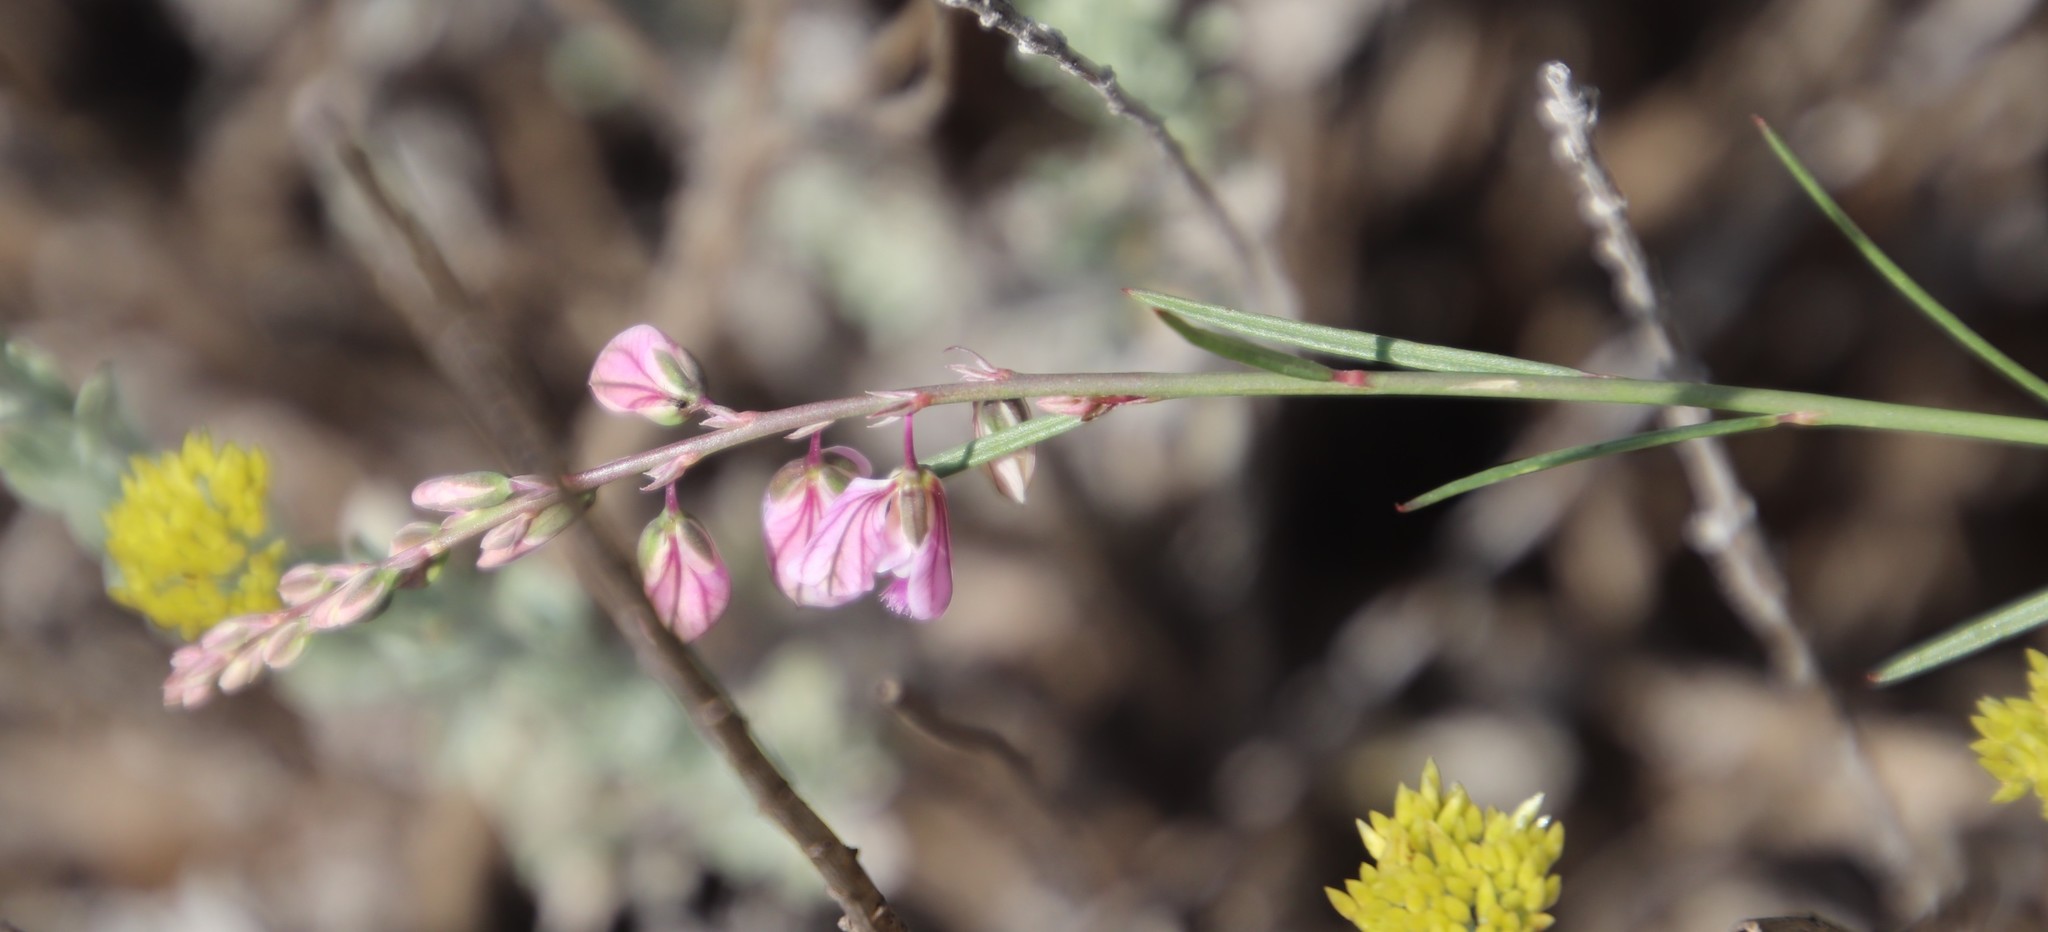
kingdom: Plantae
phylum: Tracheophyta
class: Magnoliopsida
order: Fabales
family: Polygalaceae
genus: Polygala
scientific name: Polygala hottentotta
